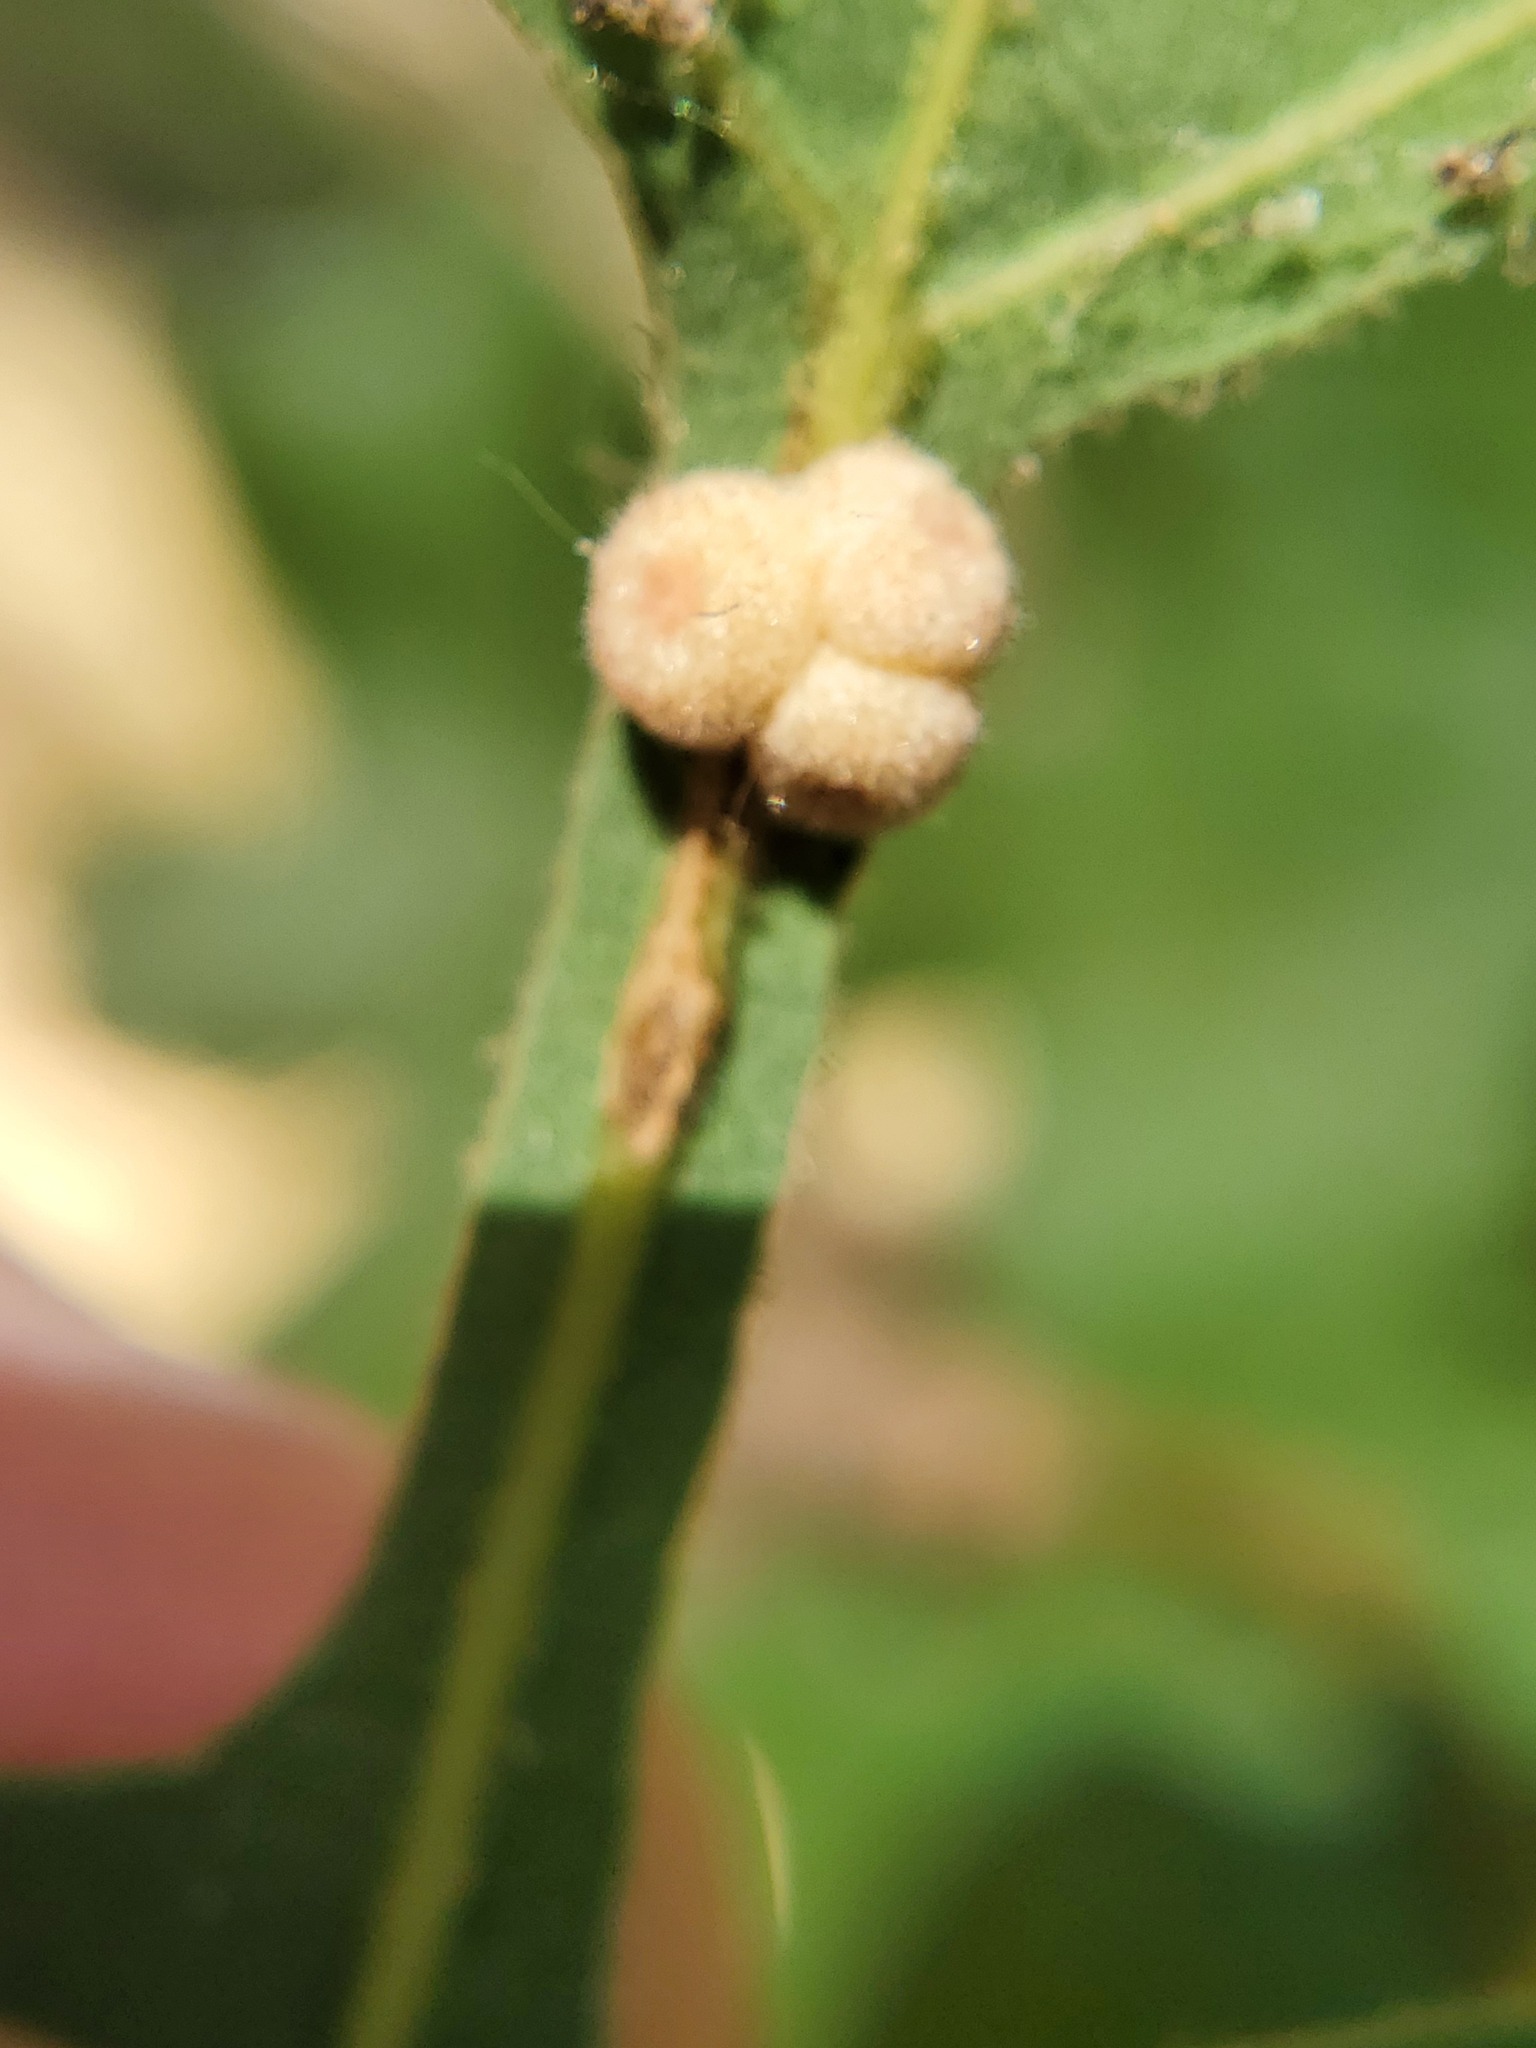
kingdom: Animalia
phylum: Arthropoda
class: Insecta
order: Hymenoptera
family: Cynipidae
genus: Andricus
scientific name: Andricus
